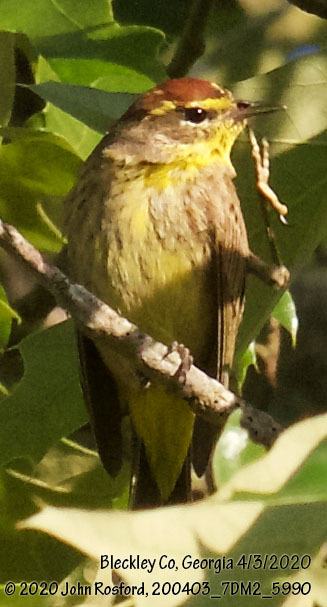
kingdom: Animalia
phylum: Chordata
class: Aves
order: Passeriformes
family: Parulidae
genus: Setophaga
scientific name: Setophaga palmarum
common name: Palm warbler
